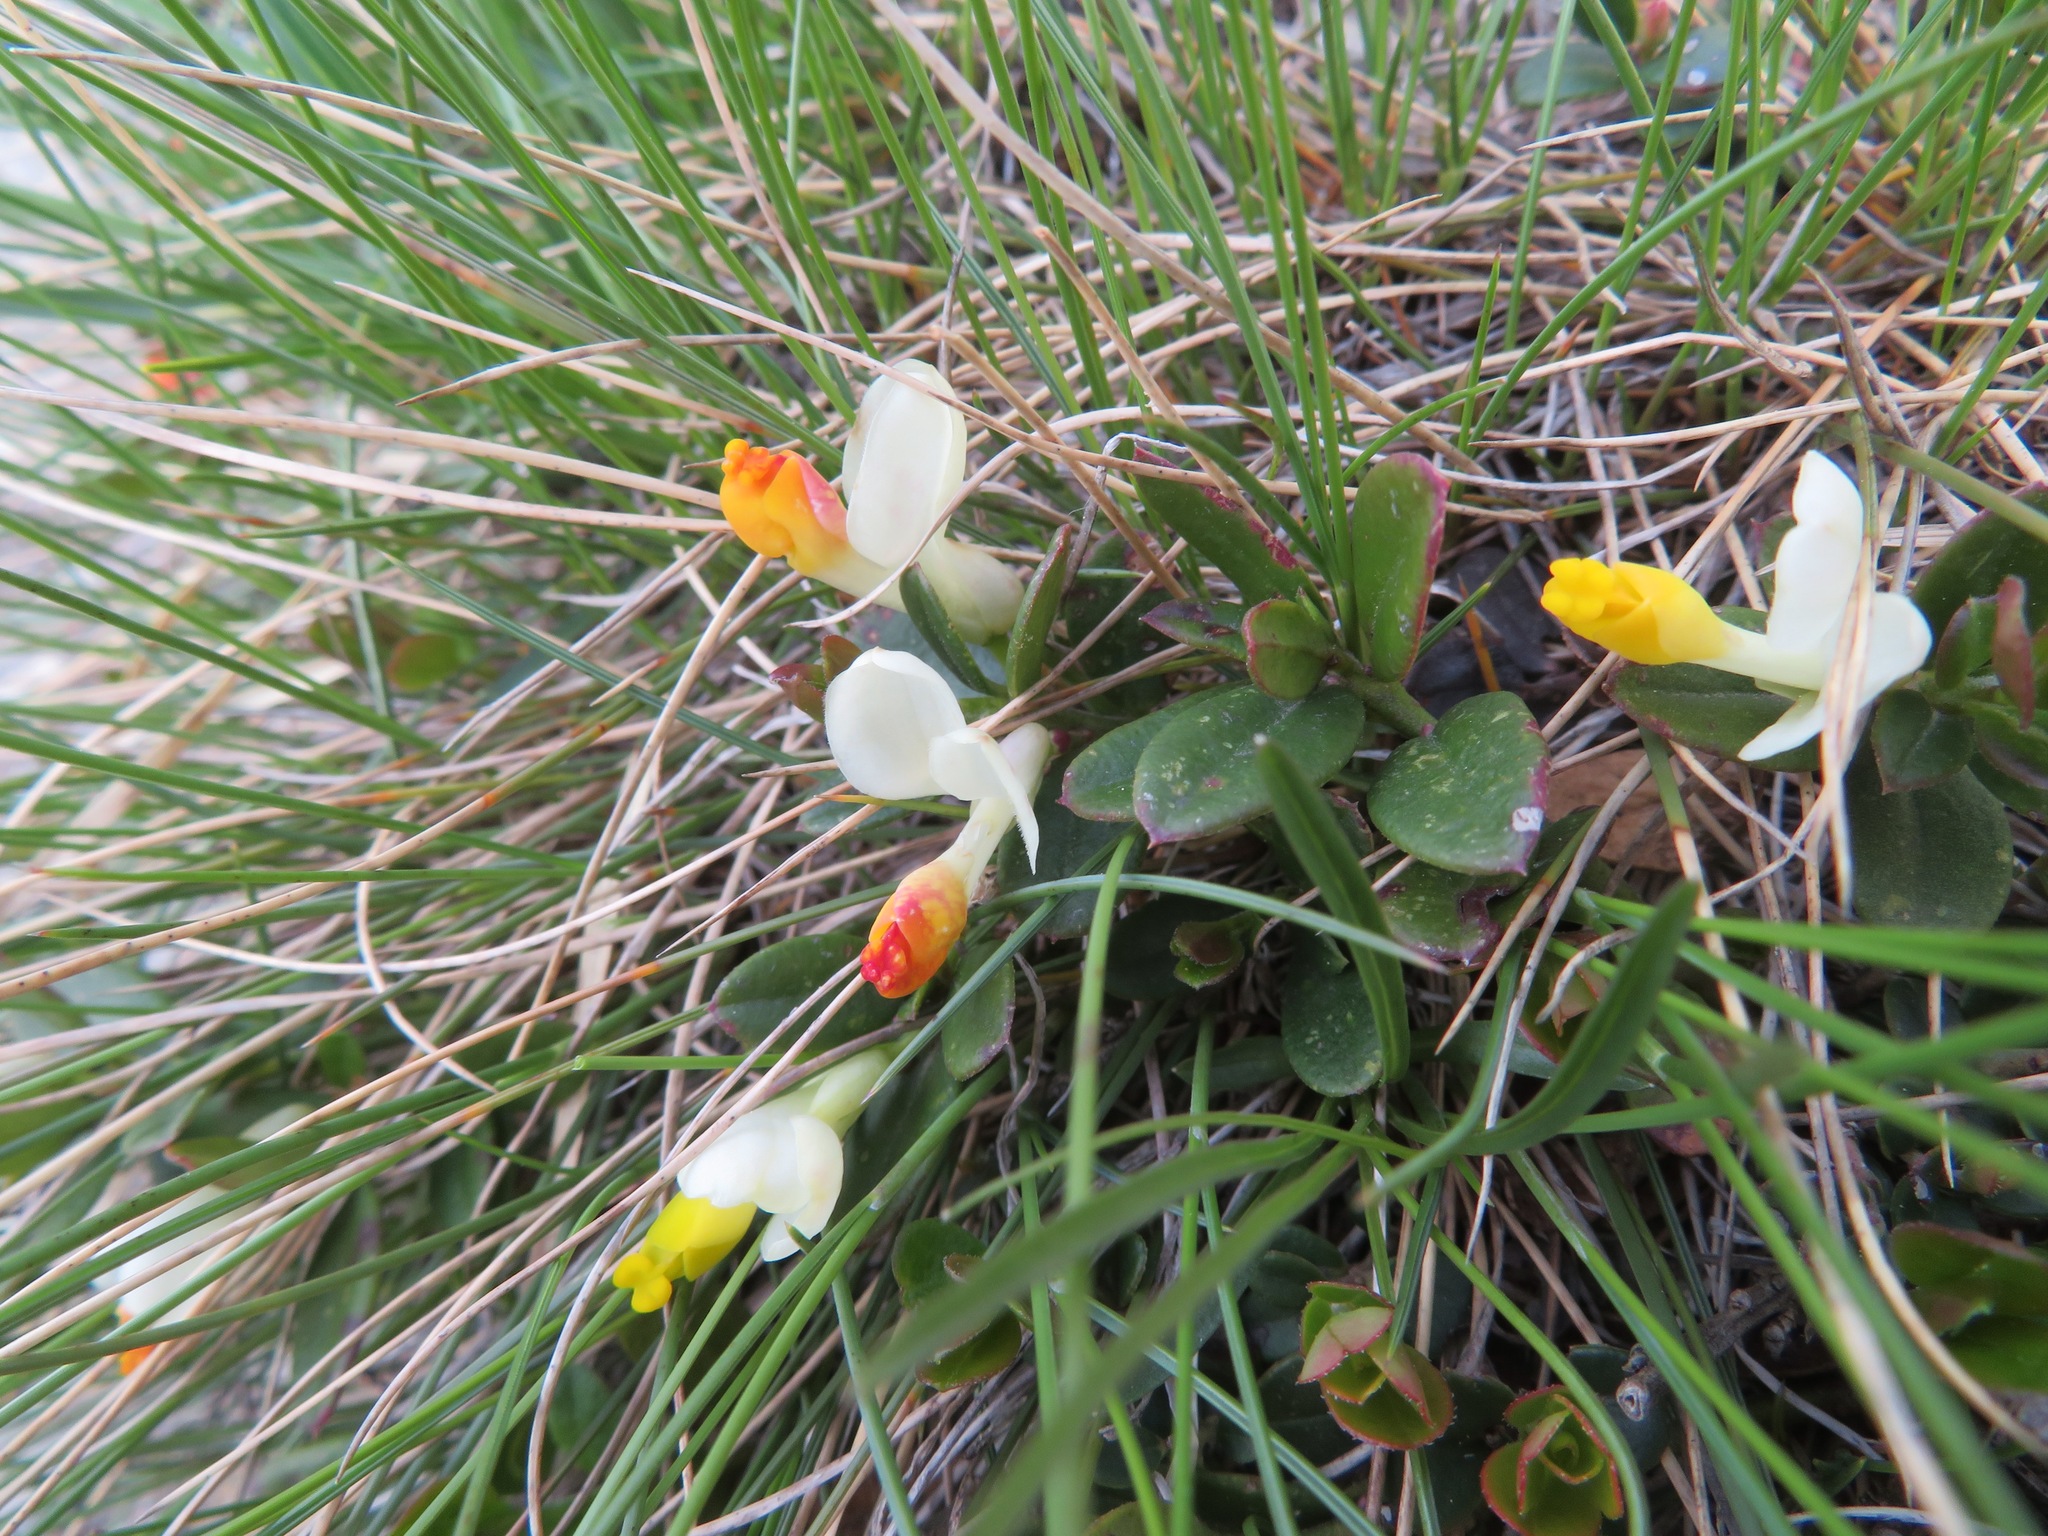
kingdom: Plantae
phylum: Tracheophyta
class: Magnoliopsida
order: Fabales
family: Polygalaceae
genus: Polygaloides
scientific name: Polygaloides chamaebuxus
